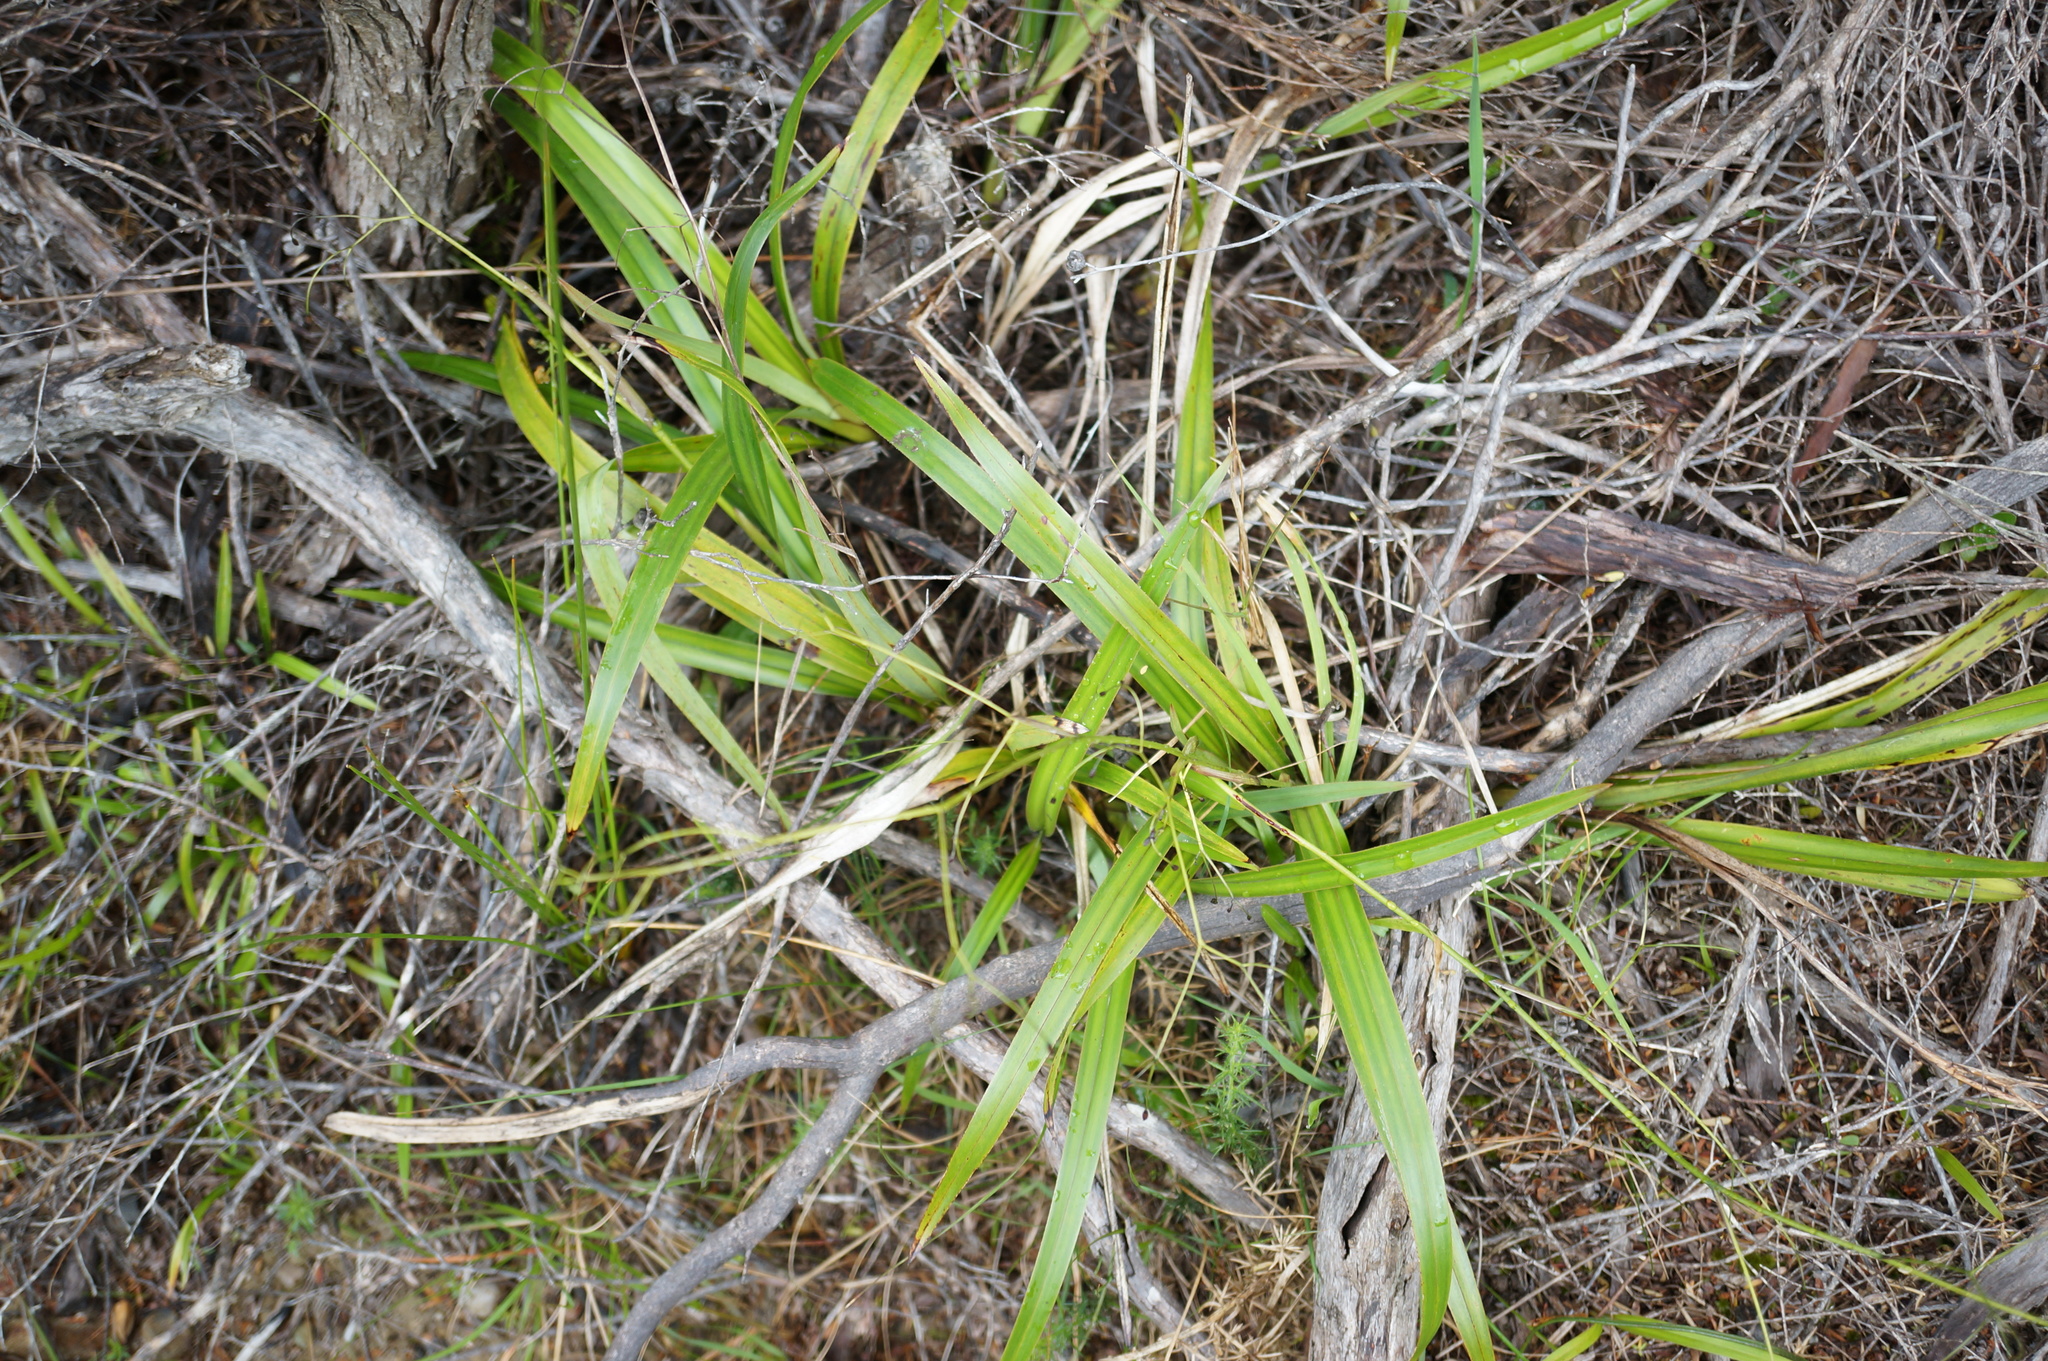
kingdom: Plantae
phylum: Tracheophyta
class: Liliopsida
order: Asparagales
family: Asphodelaceae
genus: Dianella
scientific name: Dianella nigra
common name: New zealand-blueberry
